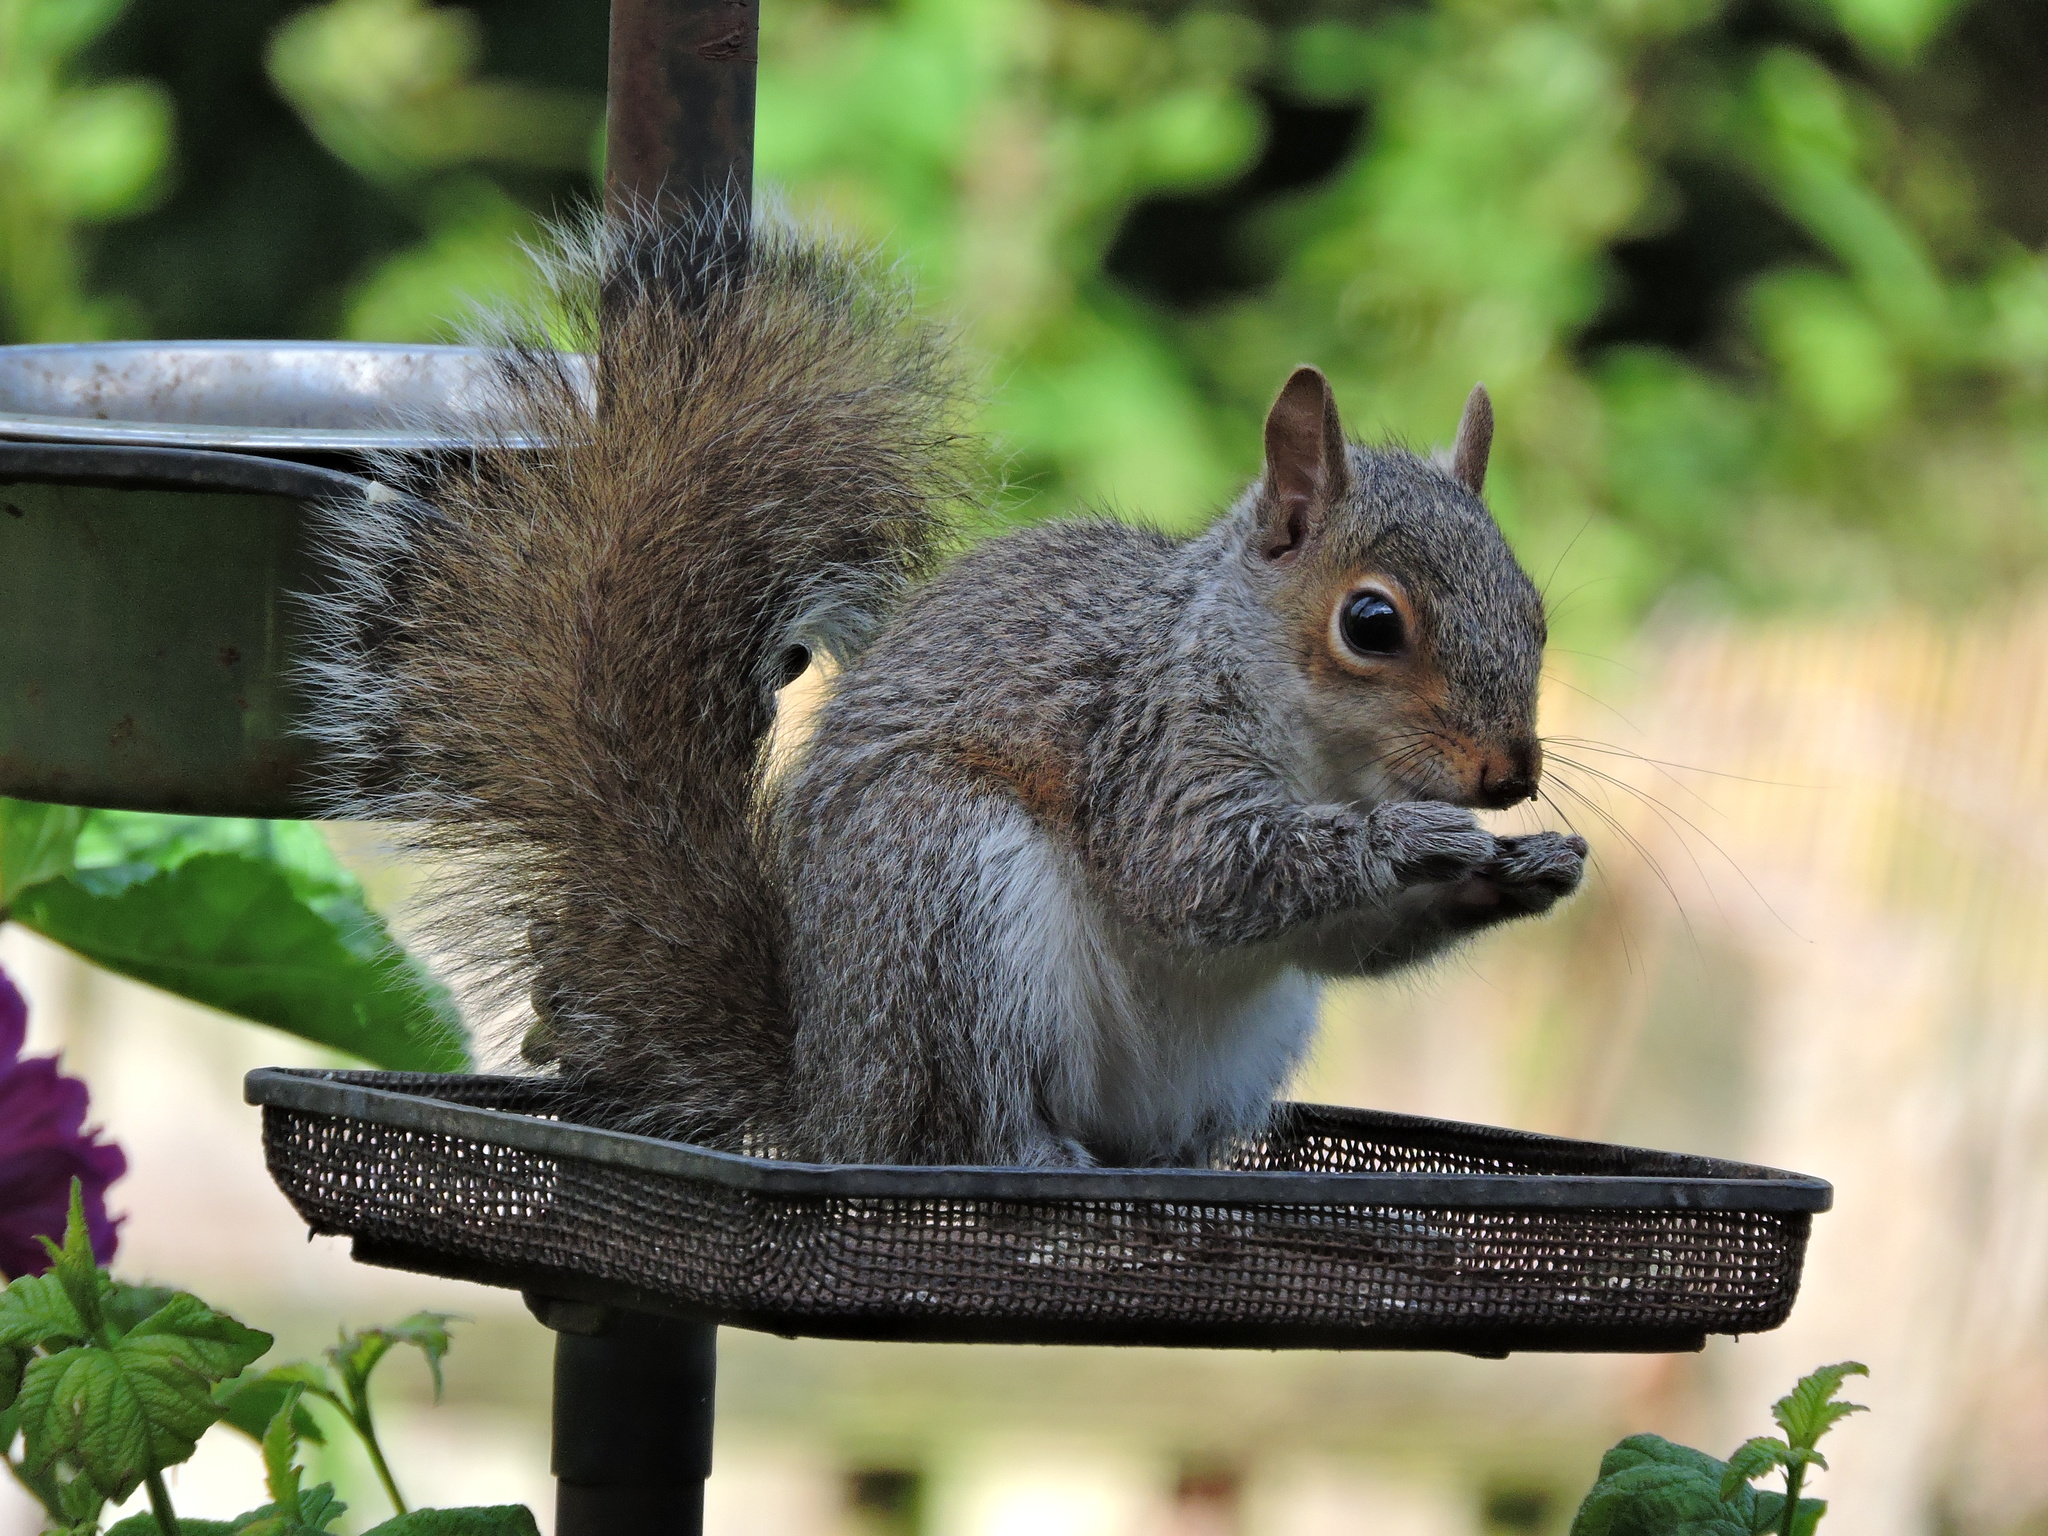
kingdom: Animalia
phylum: Chordata
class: Mammalia
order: Rodentia
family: Sciuridae
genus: Sciurus
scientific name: Sciurus carolinensis
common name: Eastern gray squirrel
